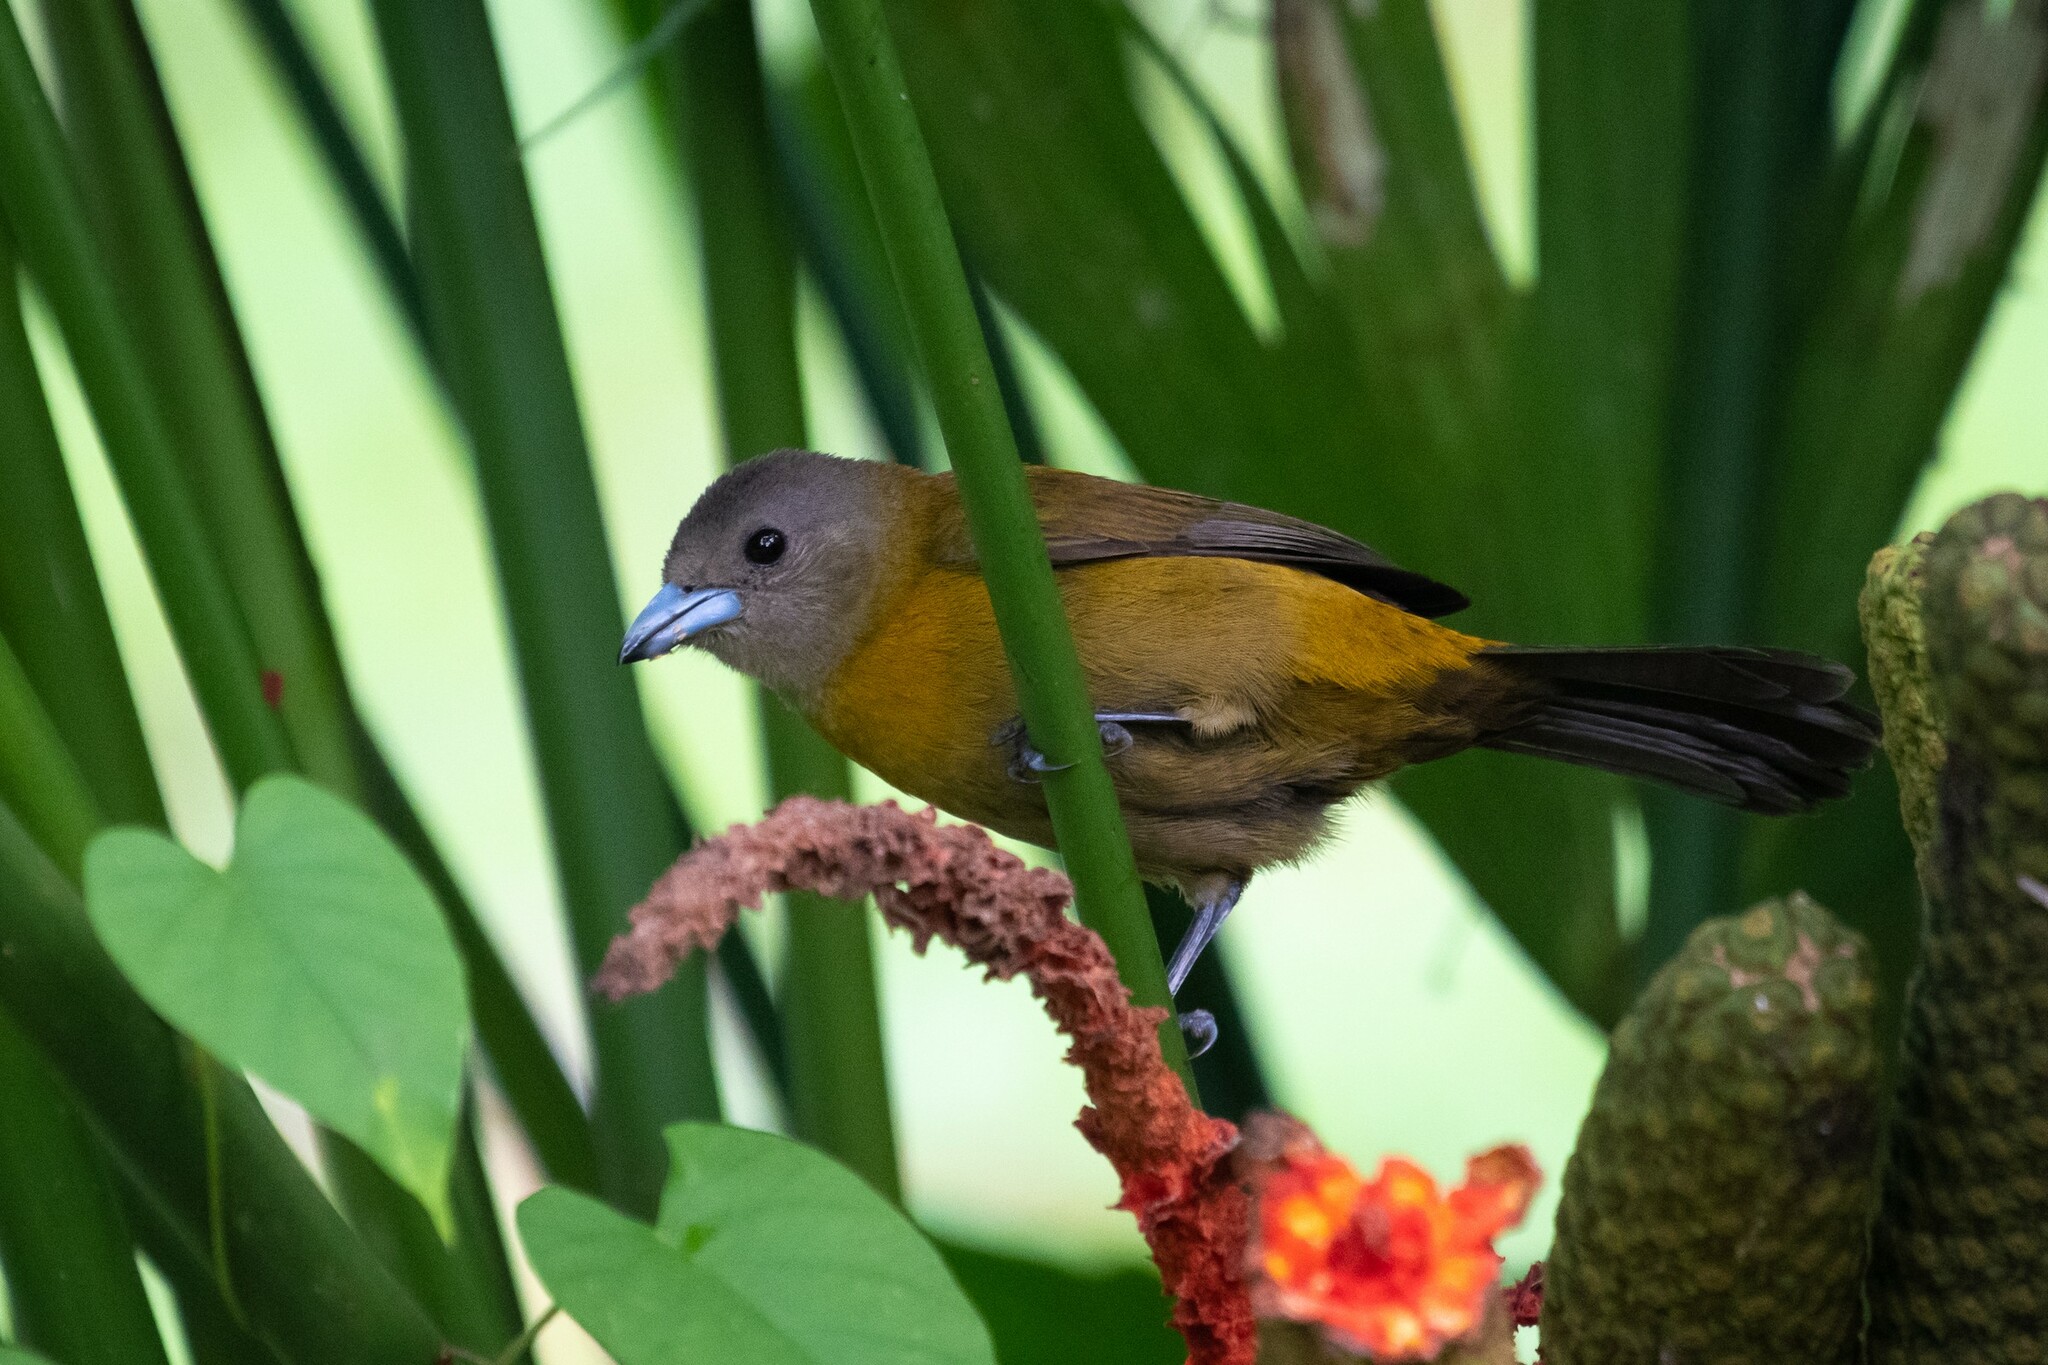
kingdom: Animalia
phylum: Chordata
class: Aves
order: Passeriformes
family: Thraupidae
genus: Ramphocelus
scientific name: Ramphocelus passerinii
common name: Passerini's tanager
